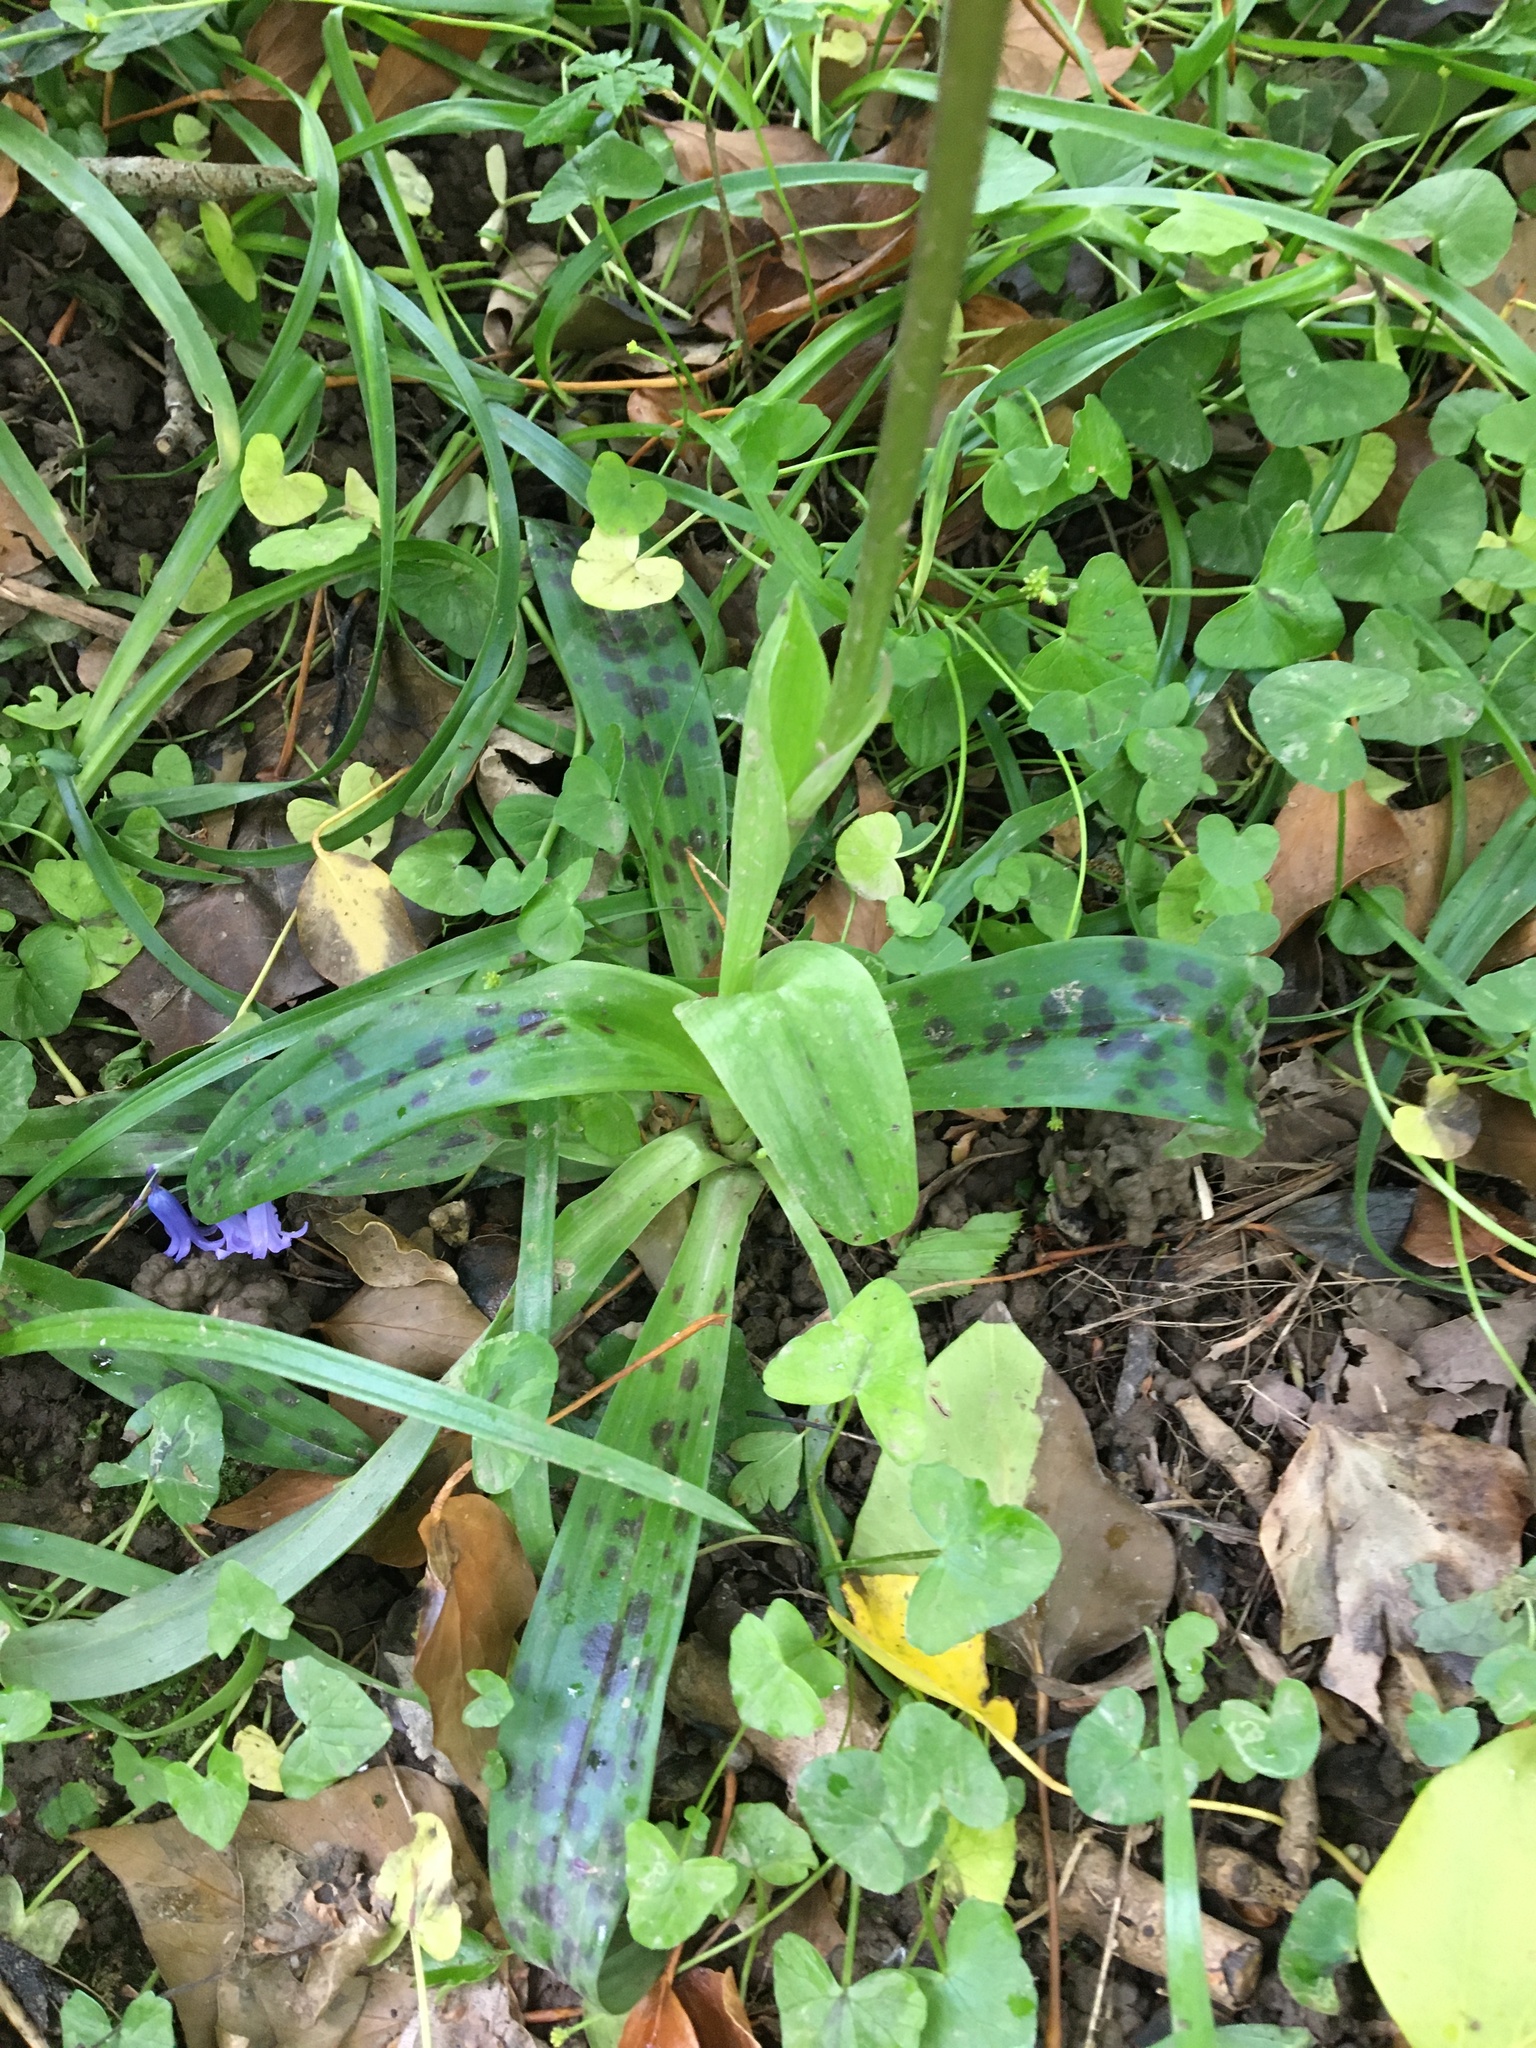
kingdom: Plantae
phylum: Tracheophyta
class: Liliopsida
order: Asparagales
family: Orchidaceae
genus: Orchis
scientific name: Orchis mascula
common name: Early-purple orchid
